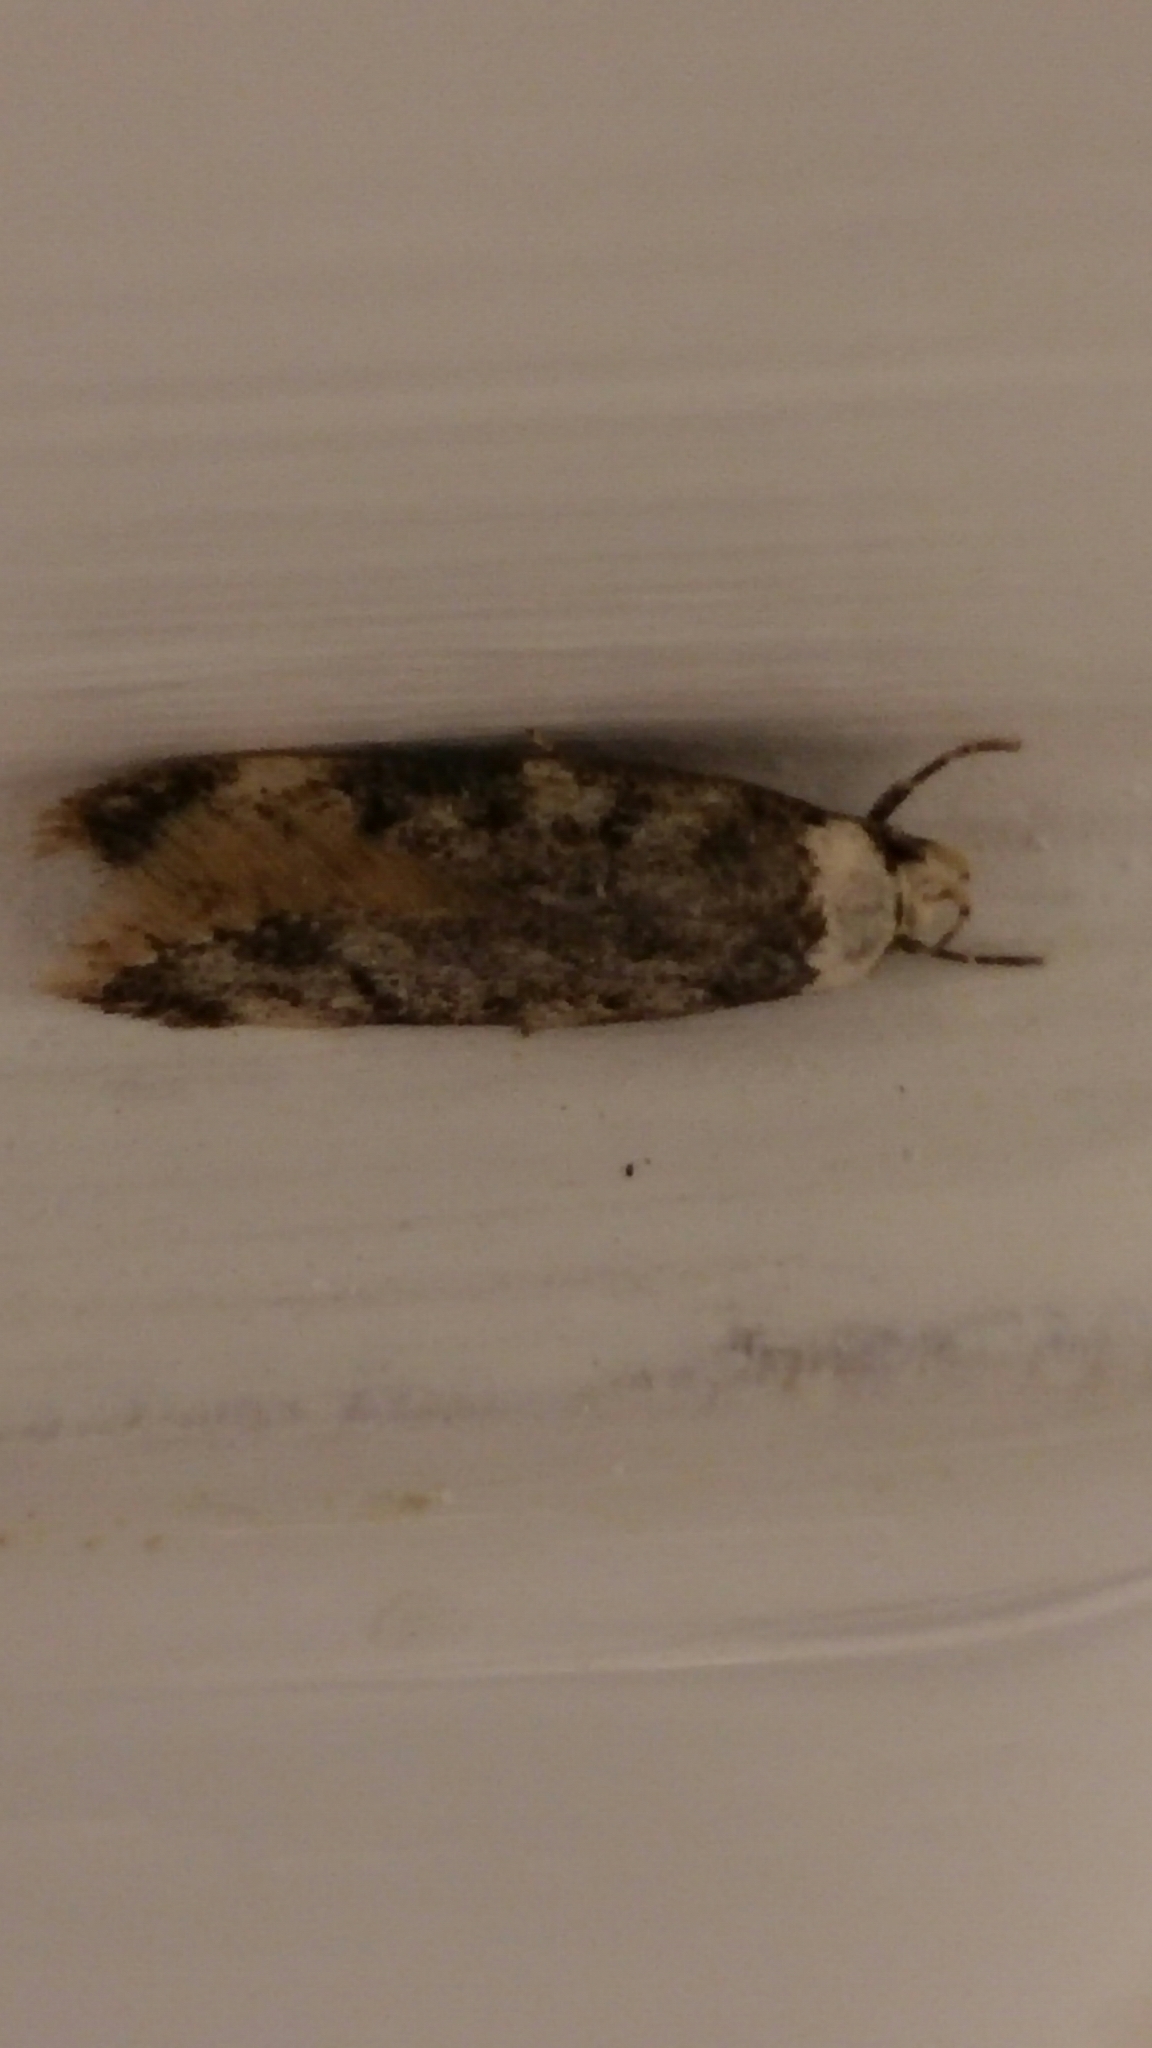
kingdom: Animalia
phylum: Arthropoda
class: Insecta
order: Lepidoptera
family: Oecophoridae
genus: Endrosis
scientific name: Endrosis sarcitrella
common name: White-shouldered house moth
